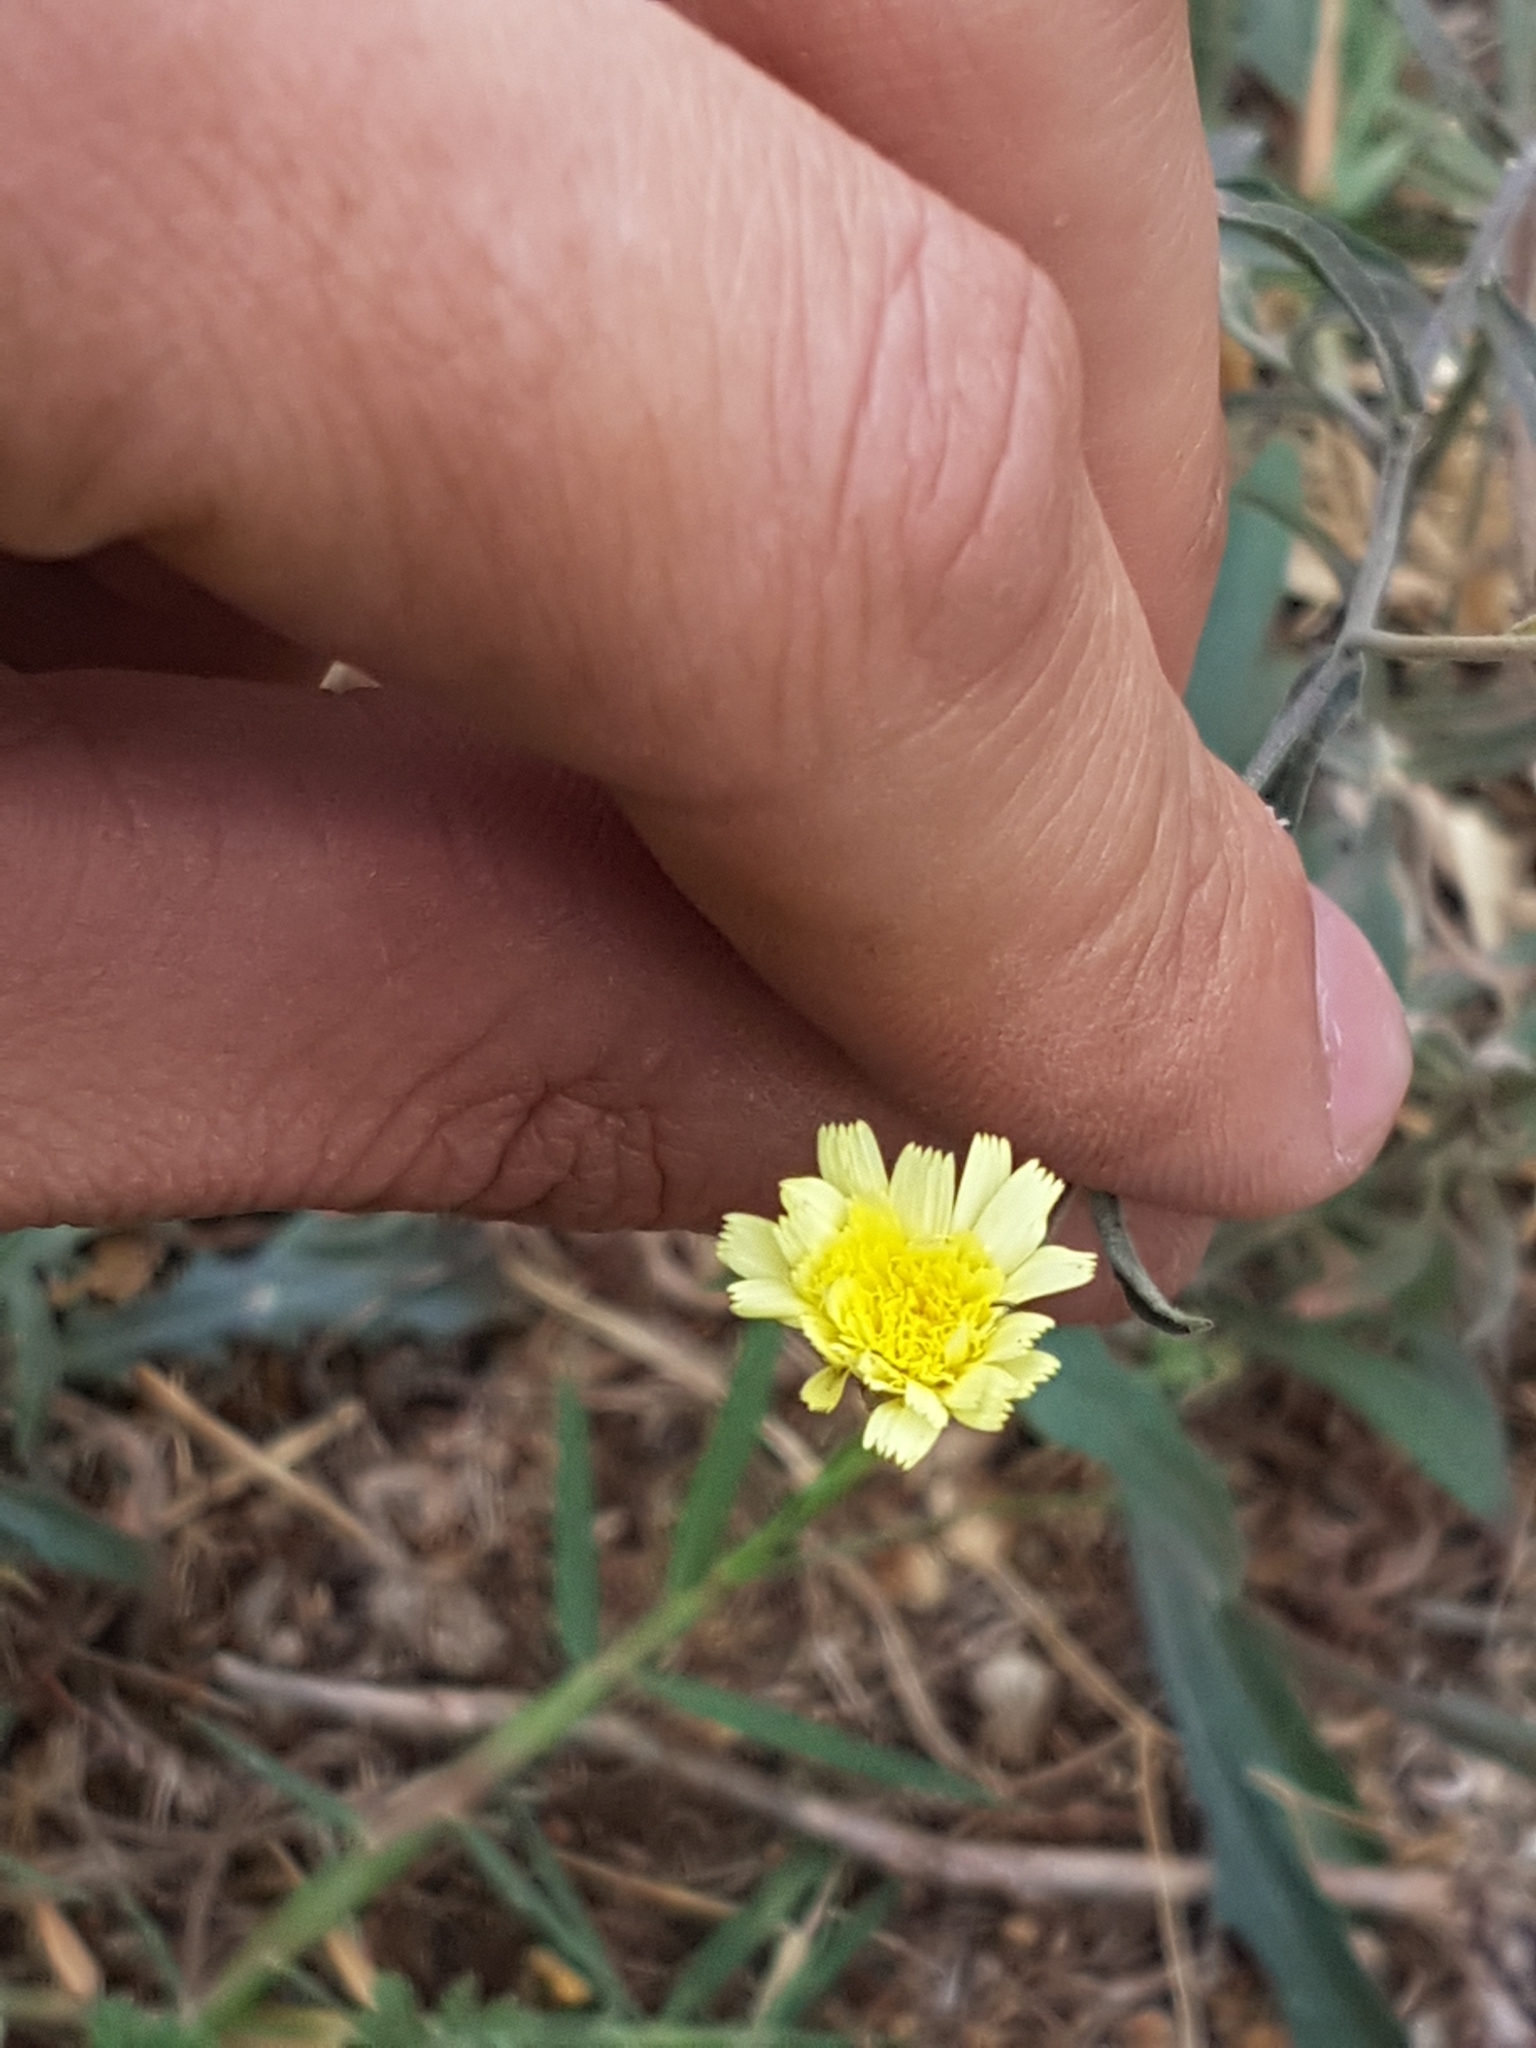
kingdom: Plantae
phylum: Tracheophyta
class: Magnoliopsida
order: Asterales
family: Asteraceae
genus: Andryala
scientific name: Andryala integrifolia
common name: Common andryala
